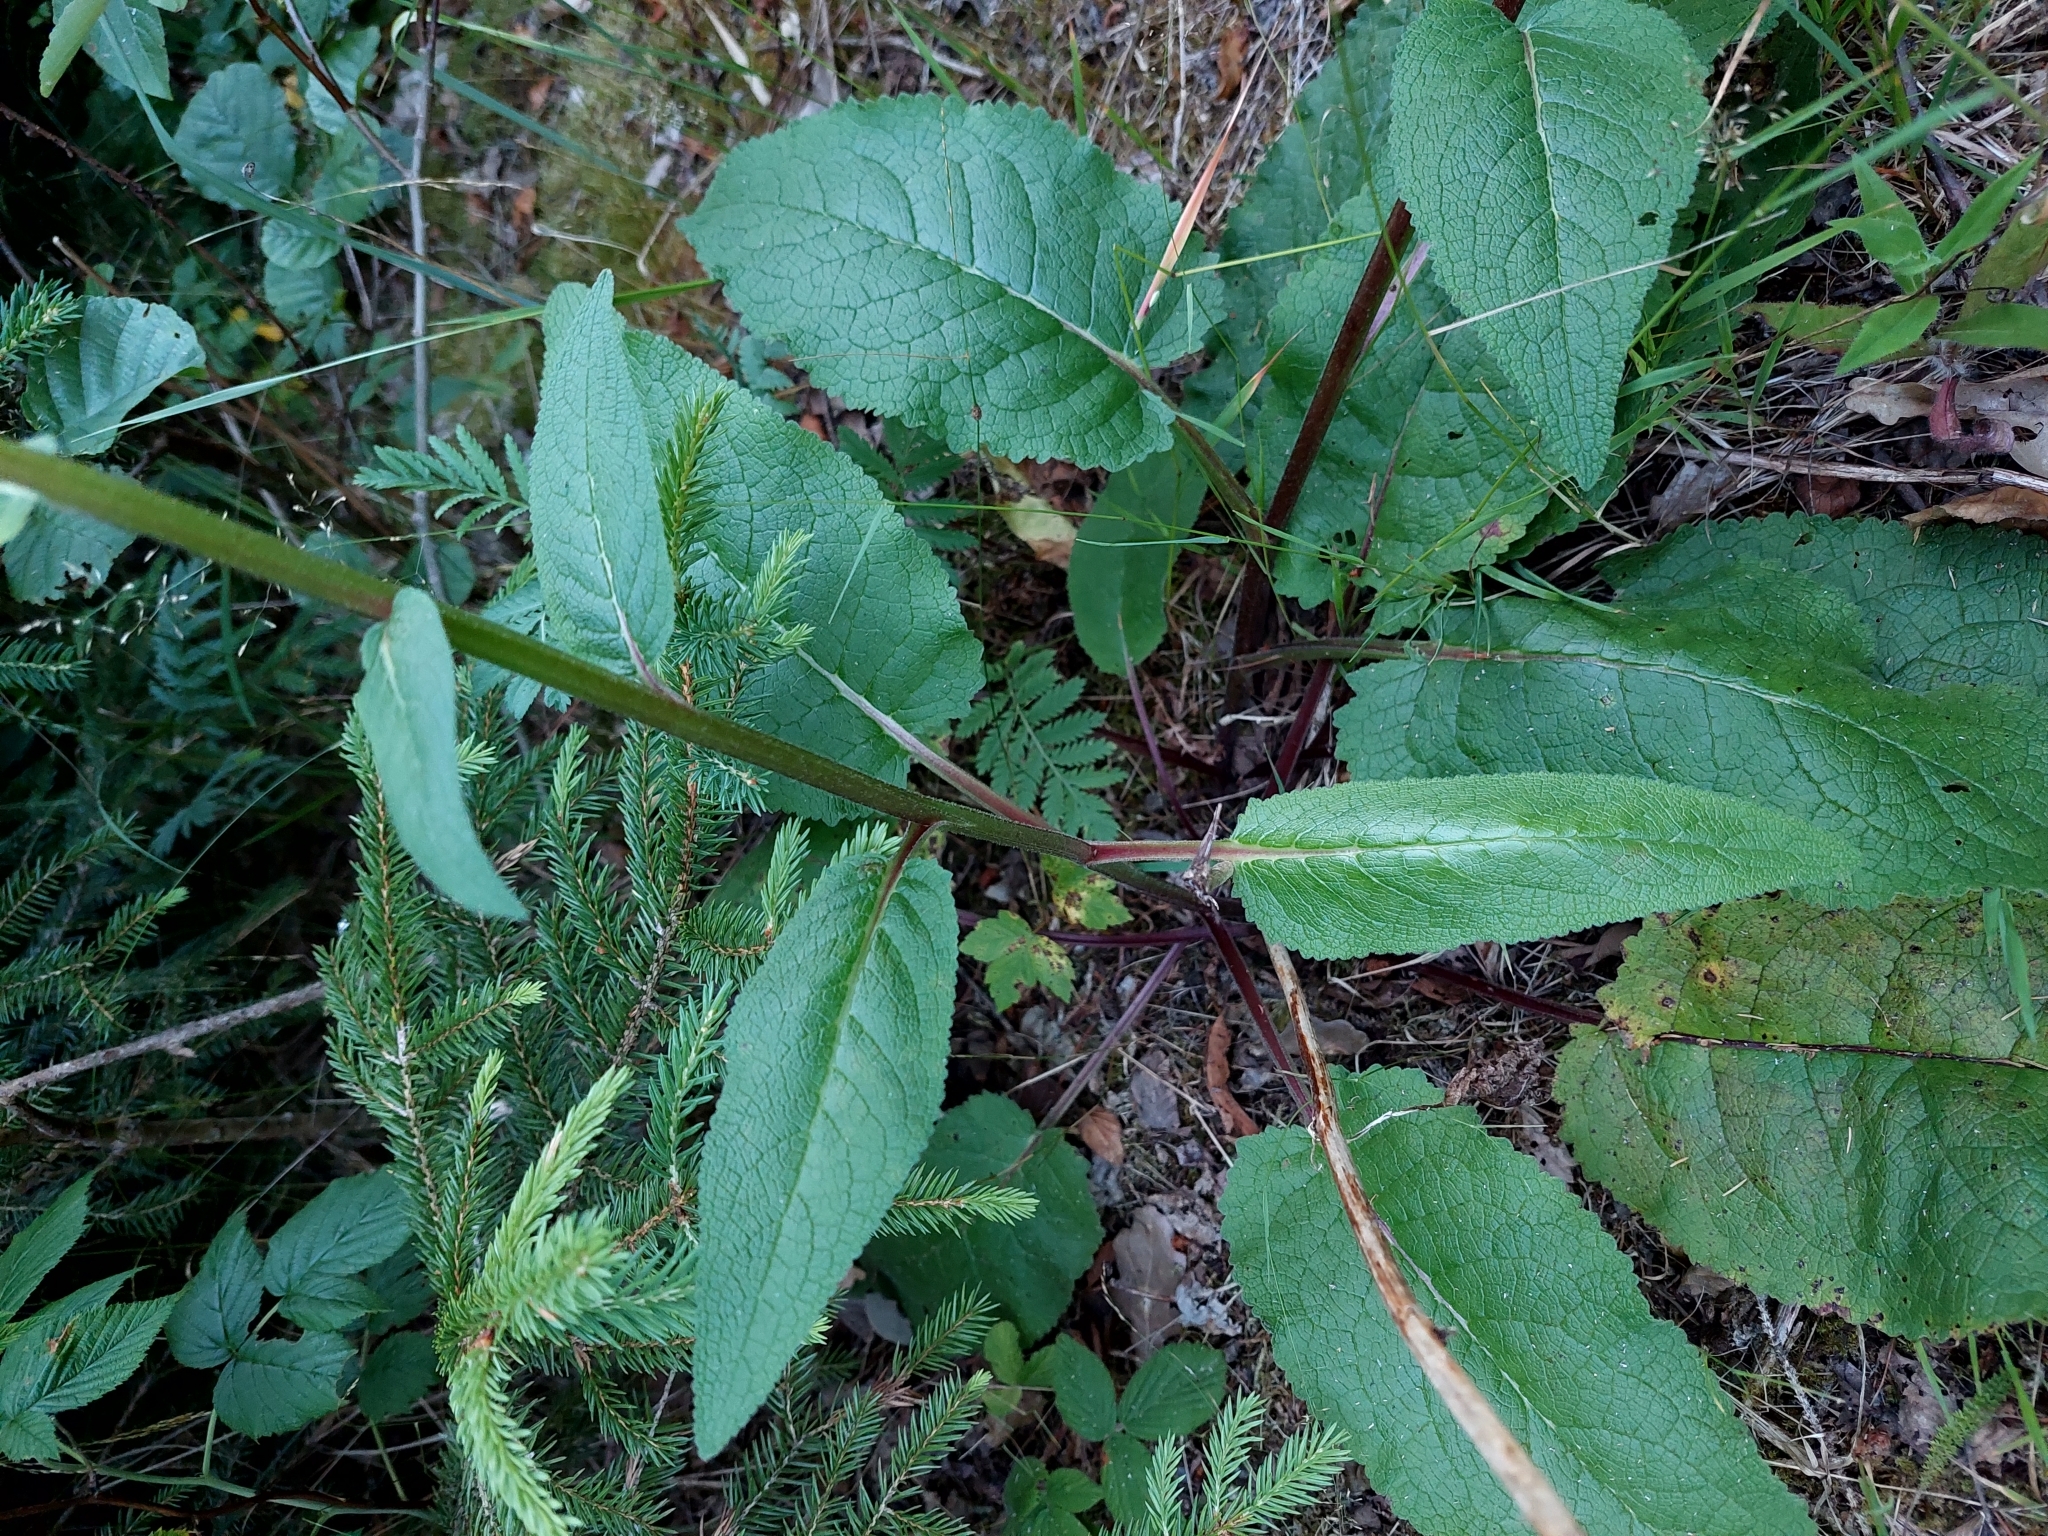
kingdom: Plantae
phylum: Tracheophyta
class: Magnoliopsida
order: Lamiales
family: Scrophulariaceae
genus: Verbascum
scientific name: Verbascum nigrum
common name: Dark mullein
